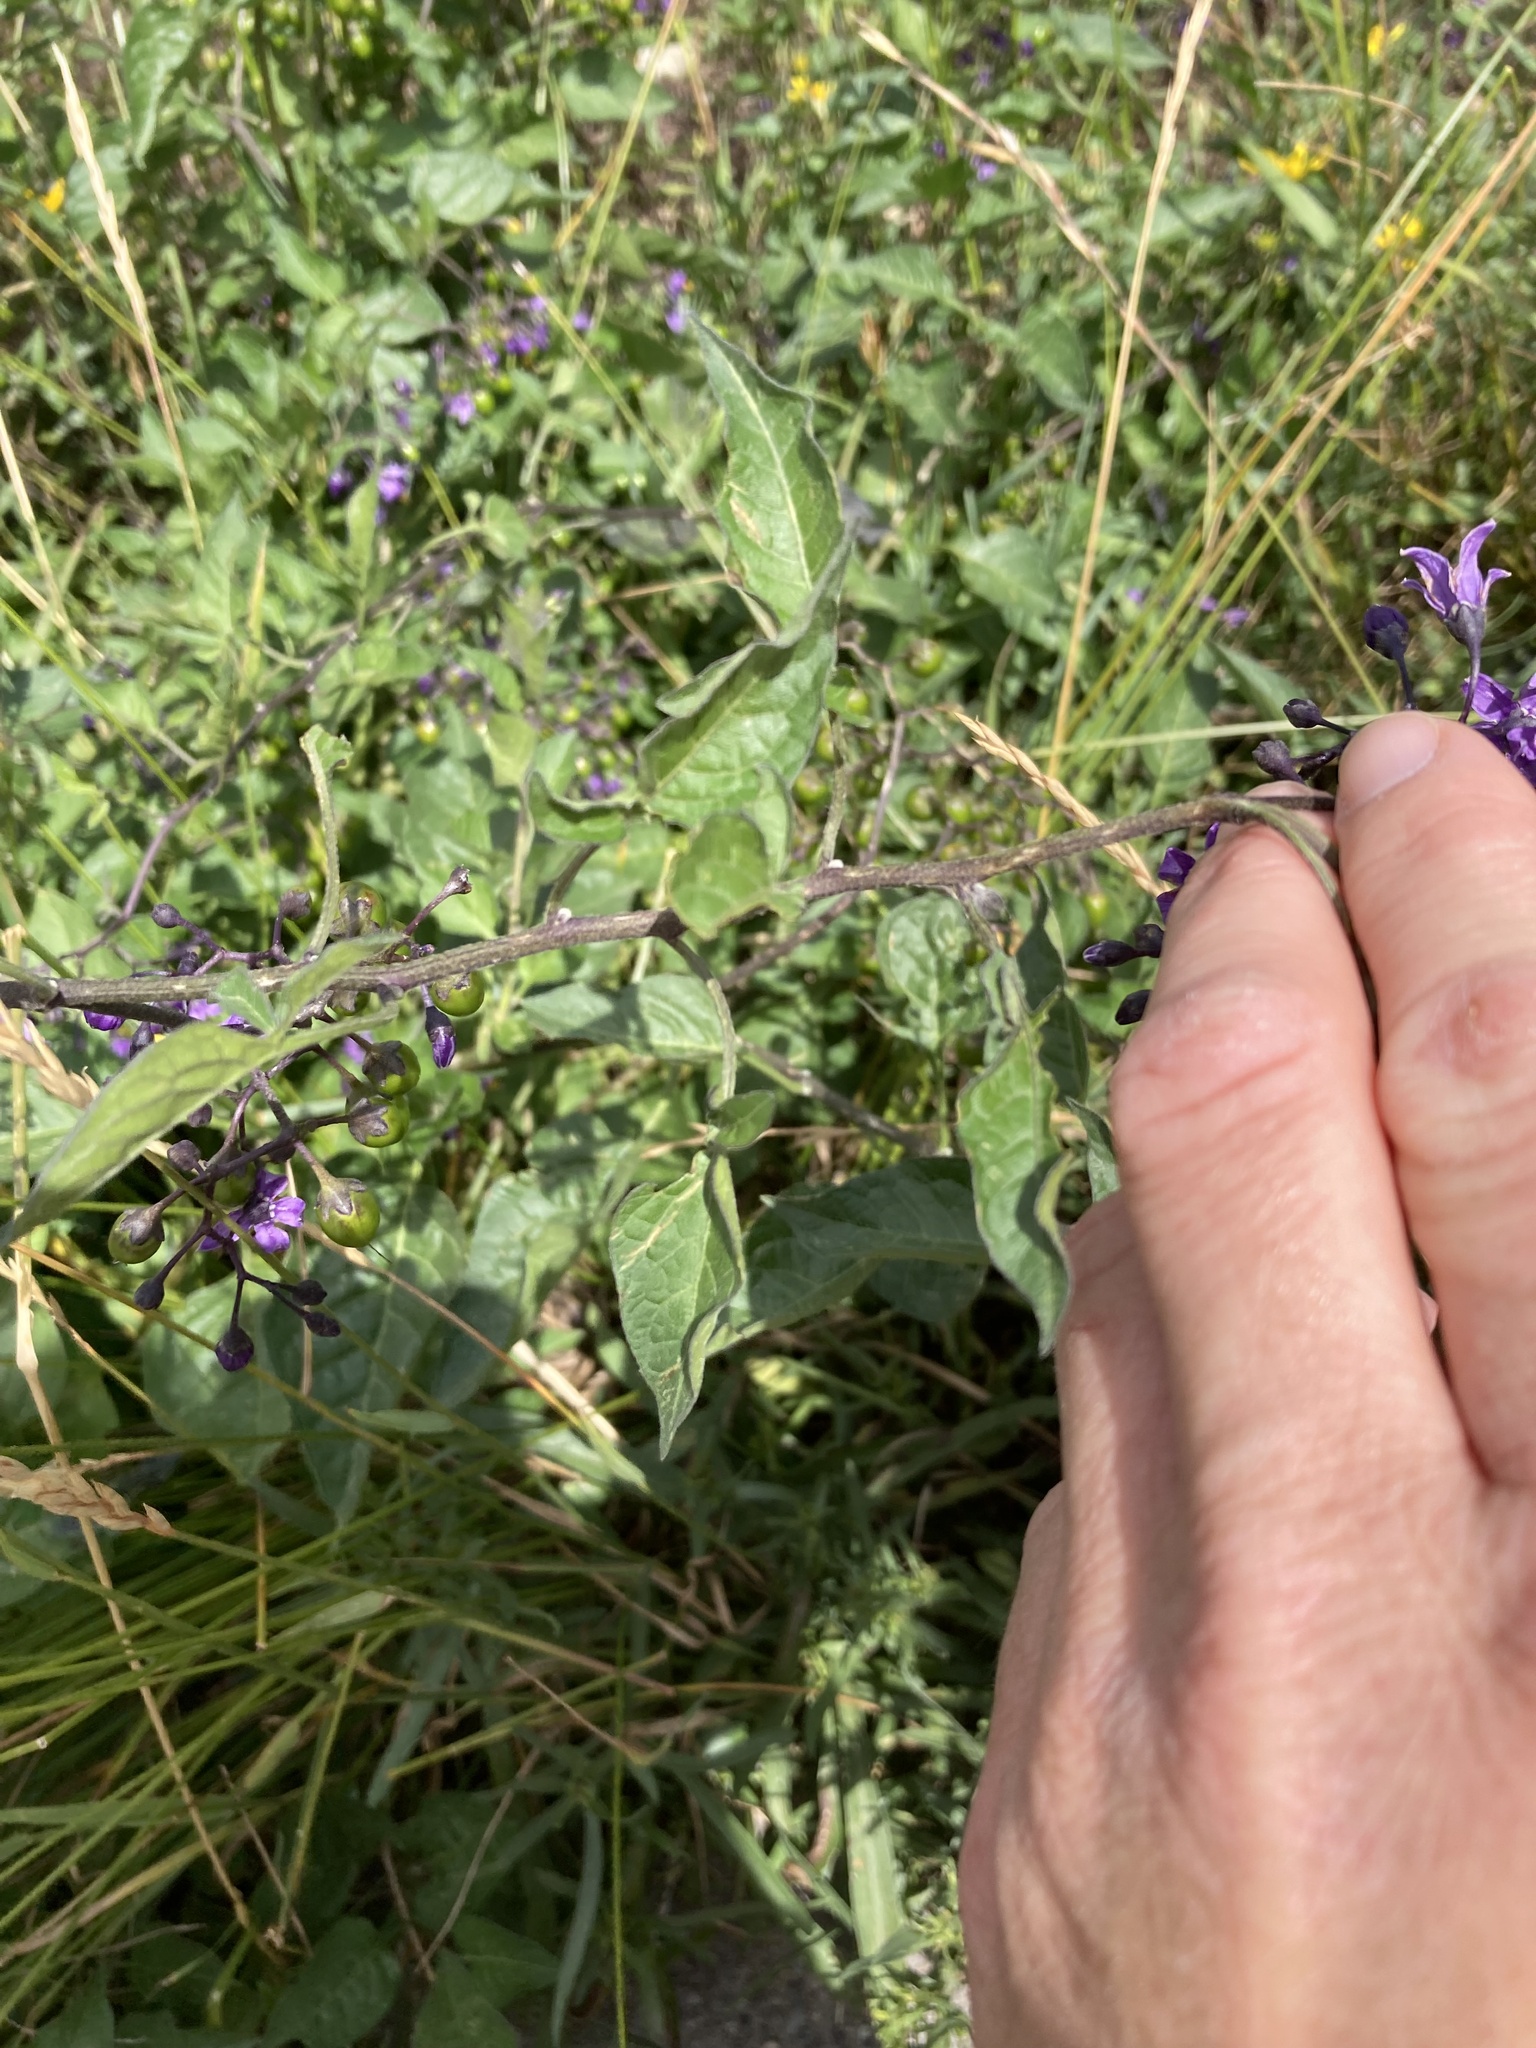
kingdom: Plantae
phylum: Tracheophyta
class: Magnoliopsida
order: Solanales
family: Solanaceae
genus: Solanum
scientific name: Solanum dulcamara
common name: Climbing nightshade
